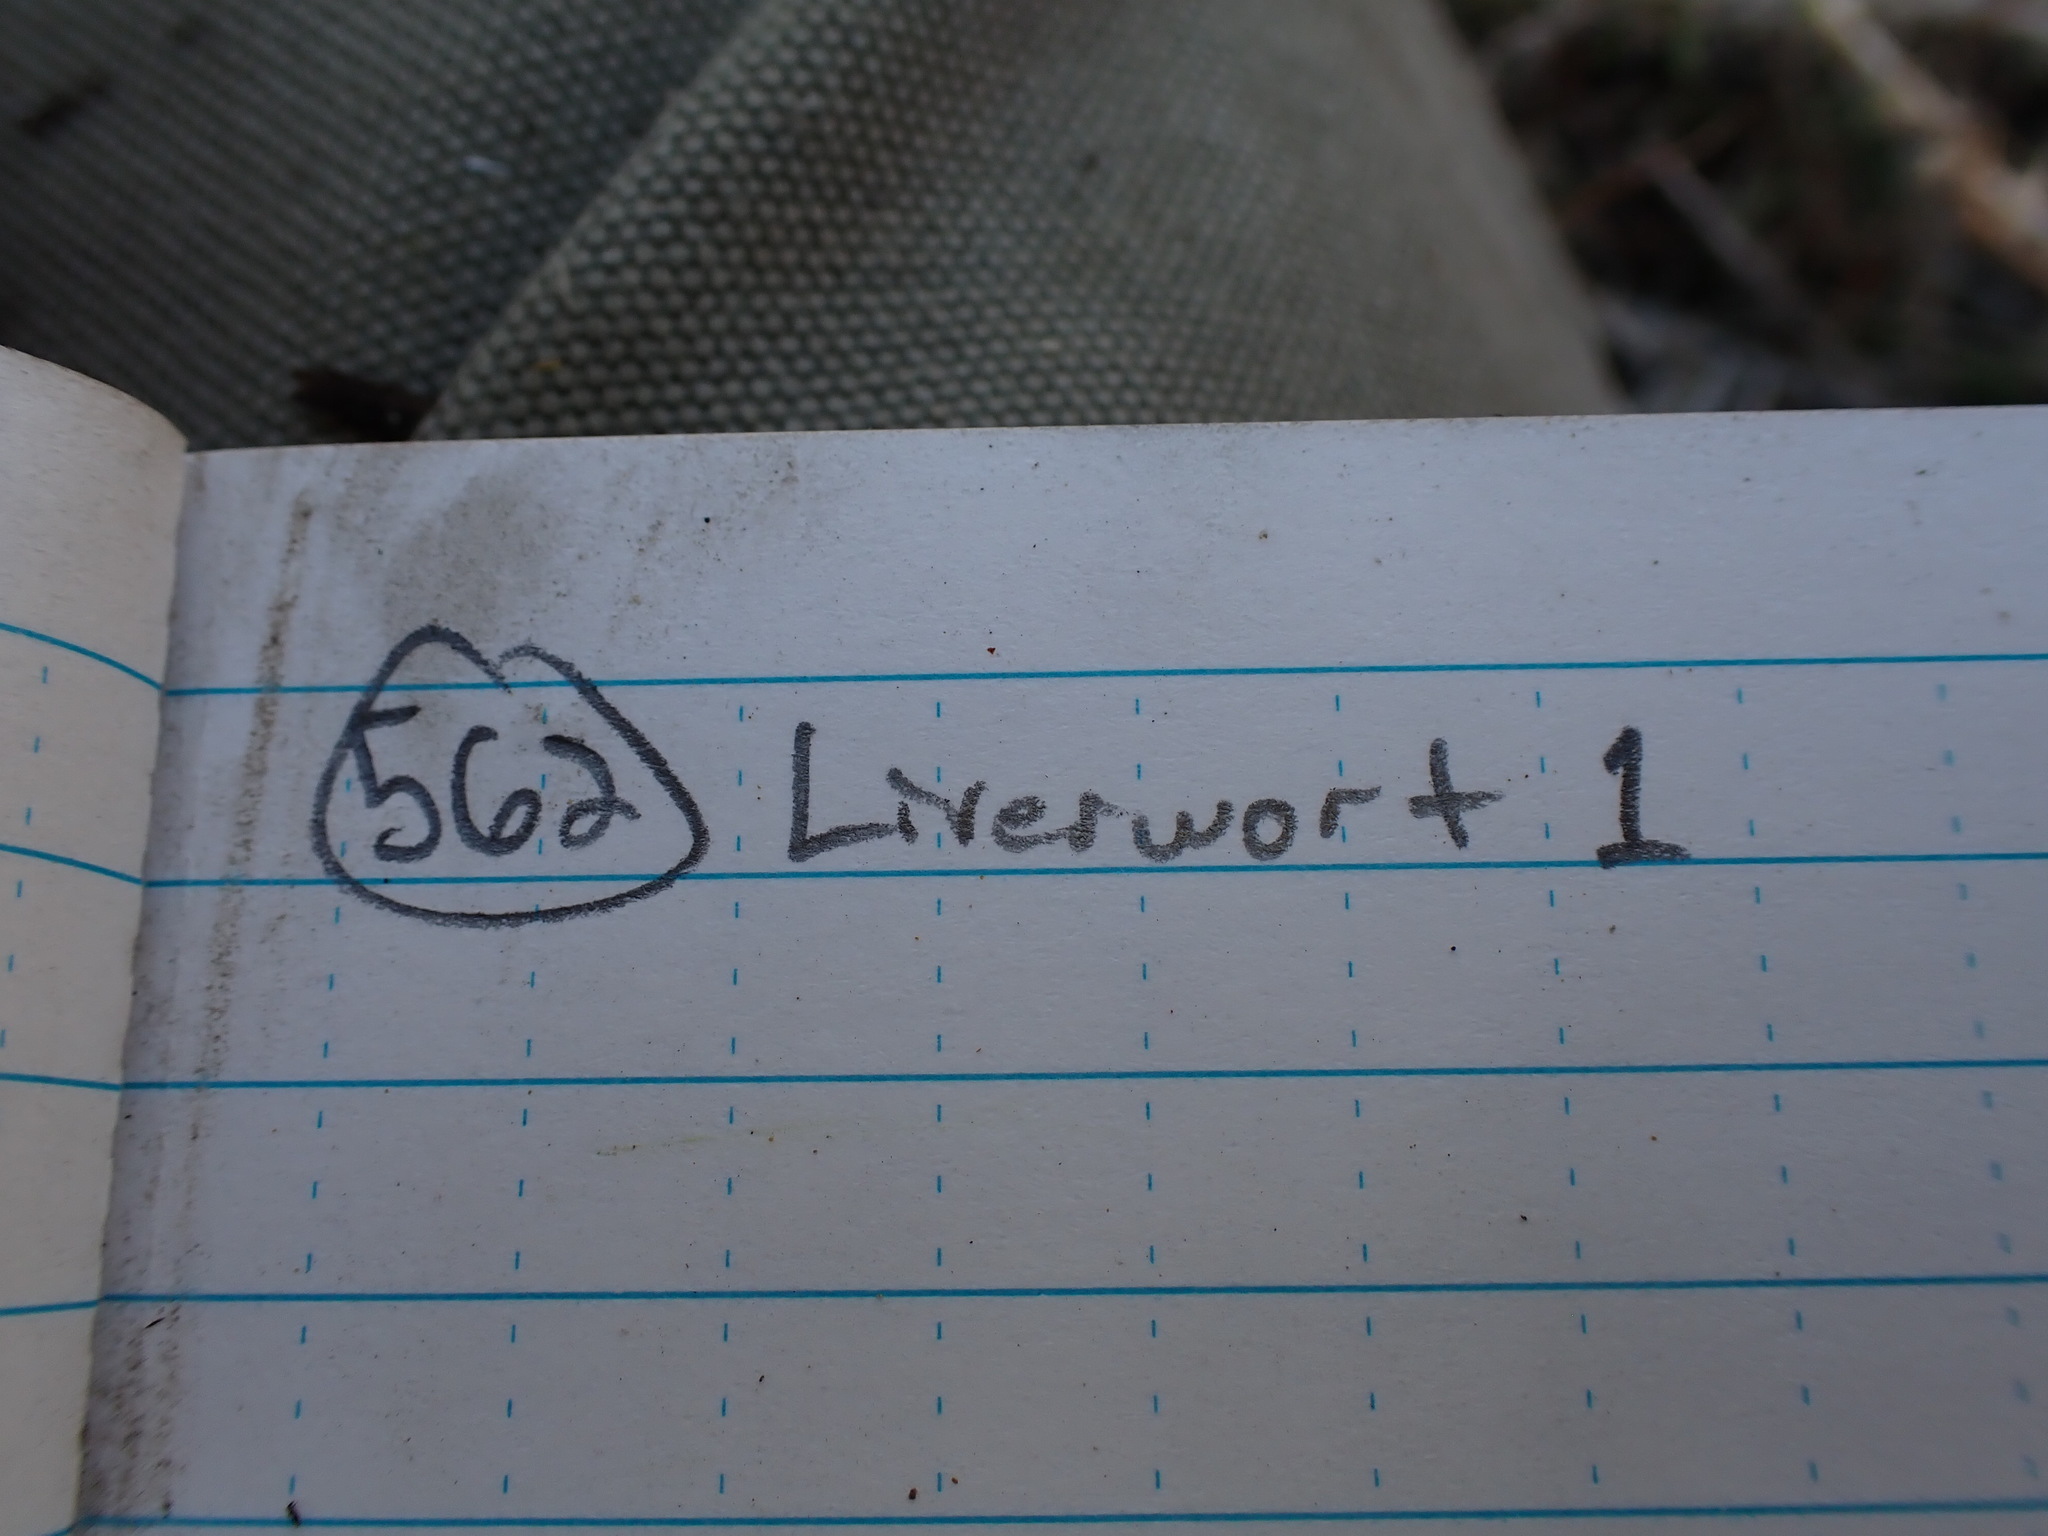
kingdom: Plantae
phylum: Marchantiophyta
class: Marchantiopsida
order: Marchantiales
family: Marchantiaceae
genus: Marchantia
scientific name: Marchantia polymorpha
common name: Common liverwort
